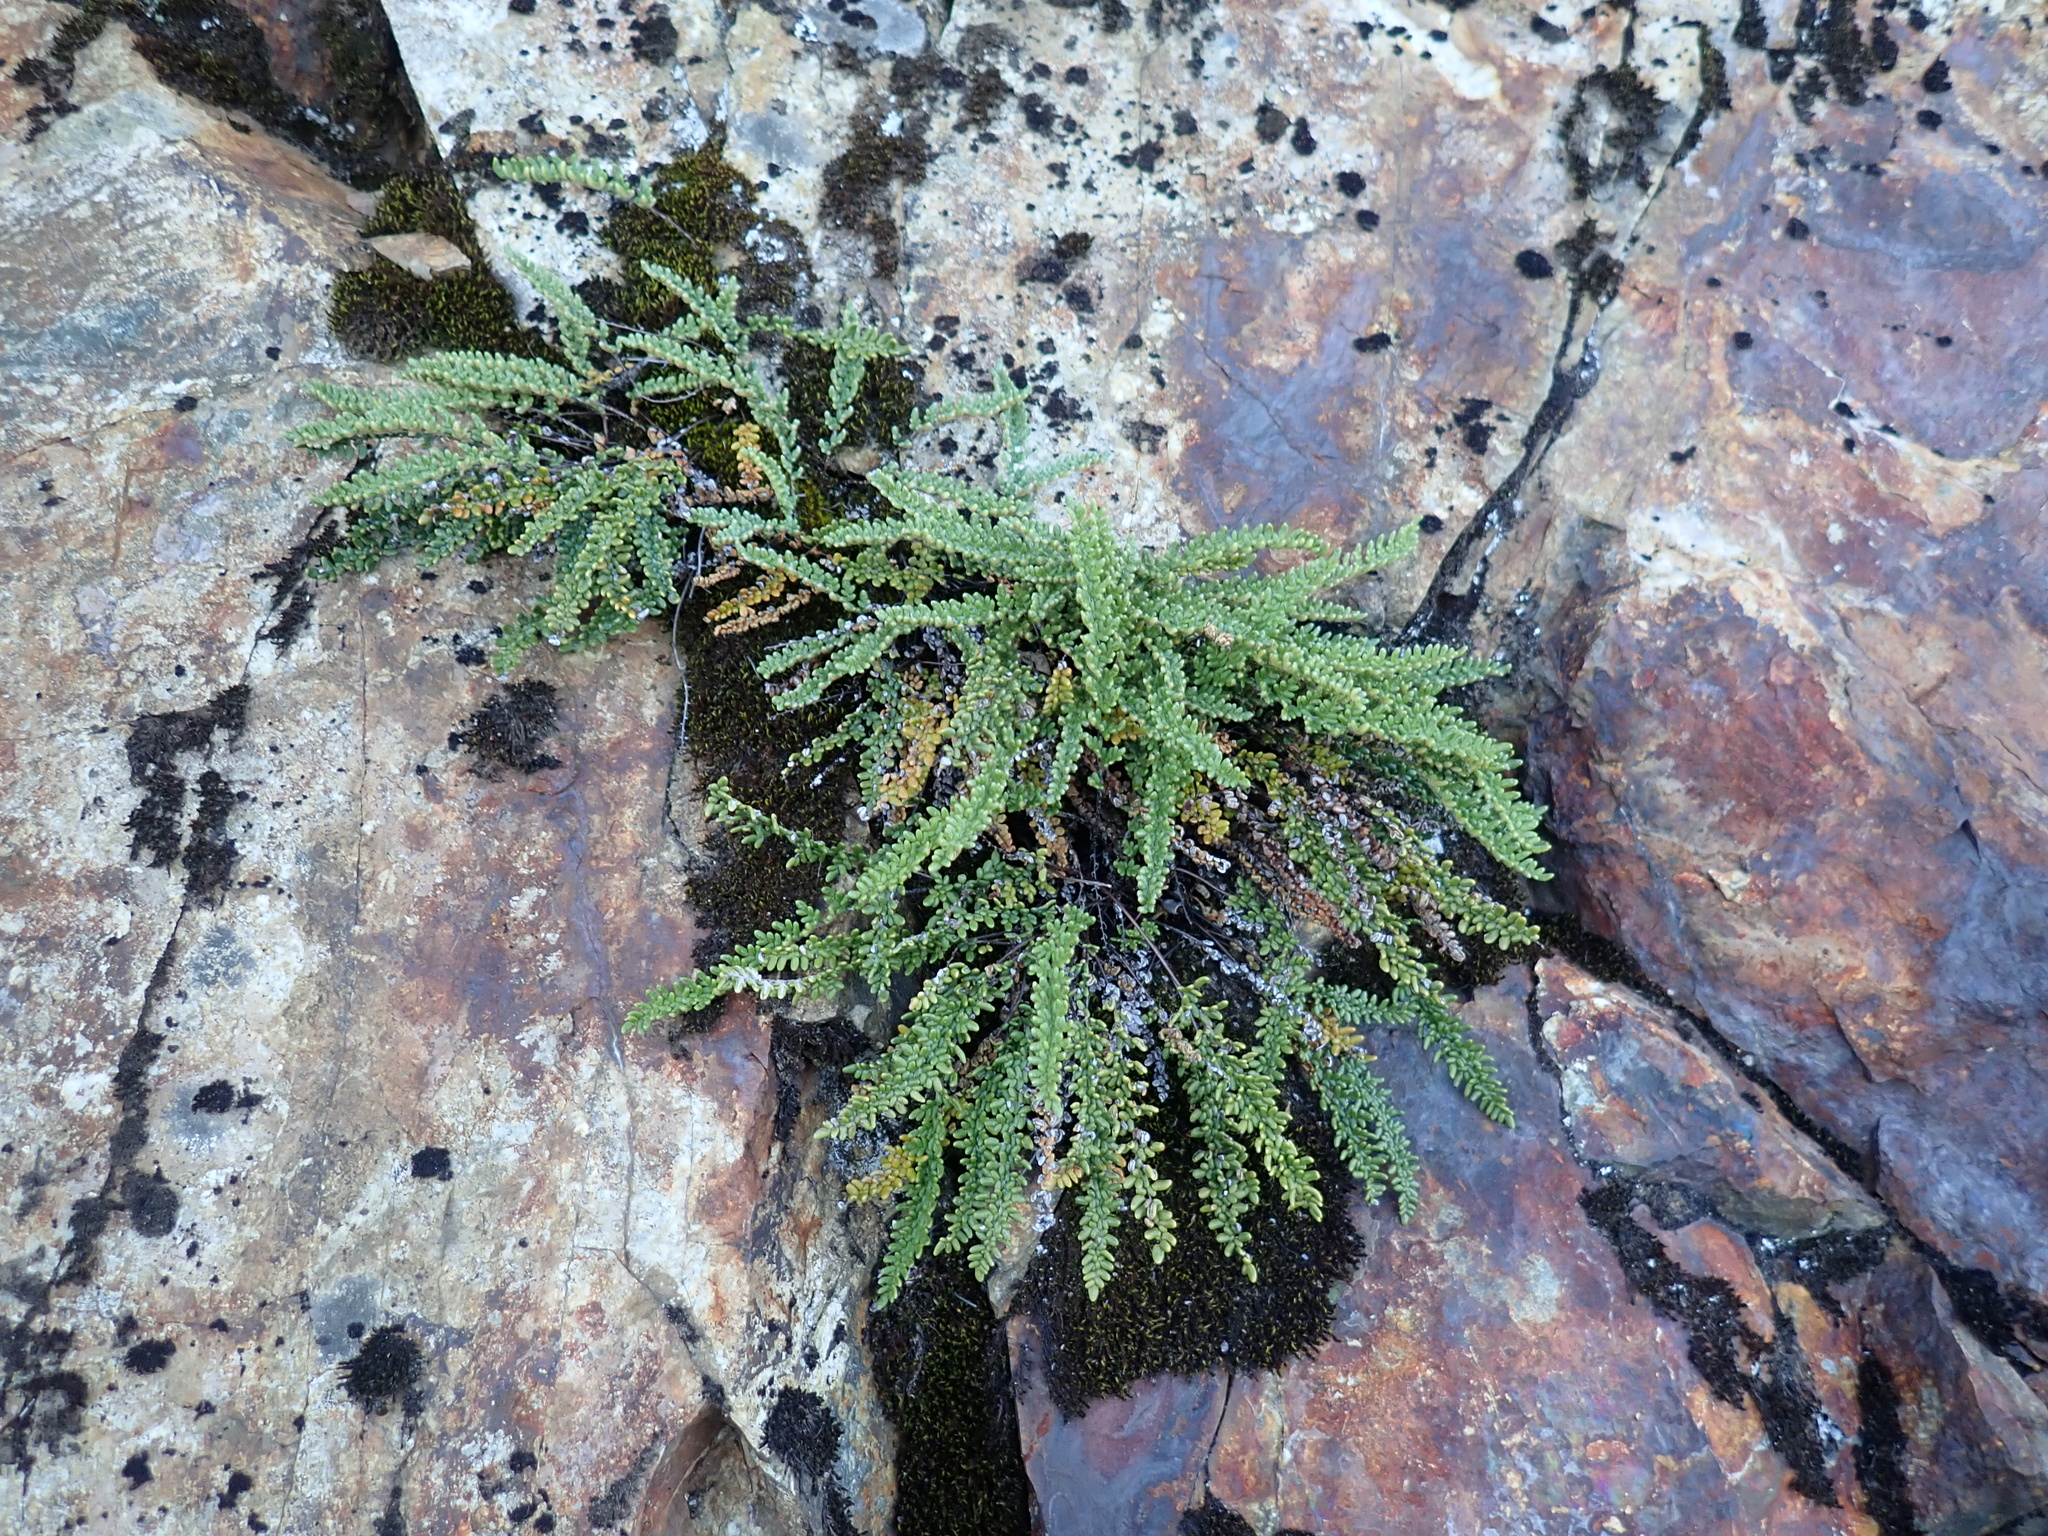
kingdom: Plantae
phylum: Tracheophyta
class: Polypodiopsida
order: Polypodiales
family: Pteridaceae
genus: Myriopteris
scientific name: Myriopteris gracillima
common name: Lace fern
